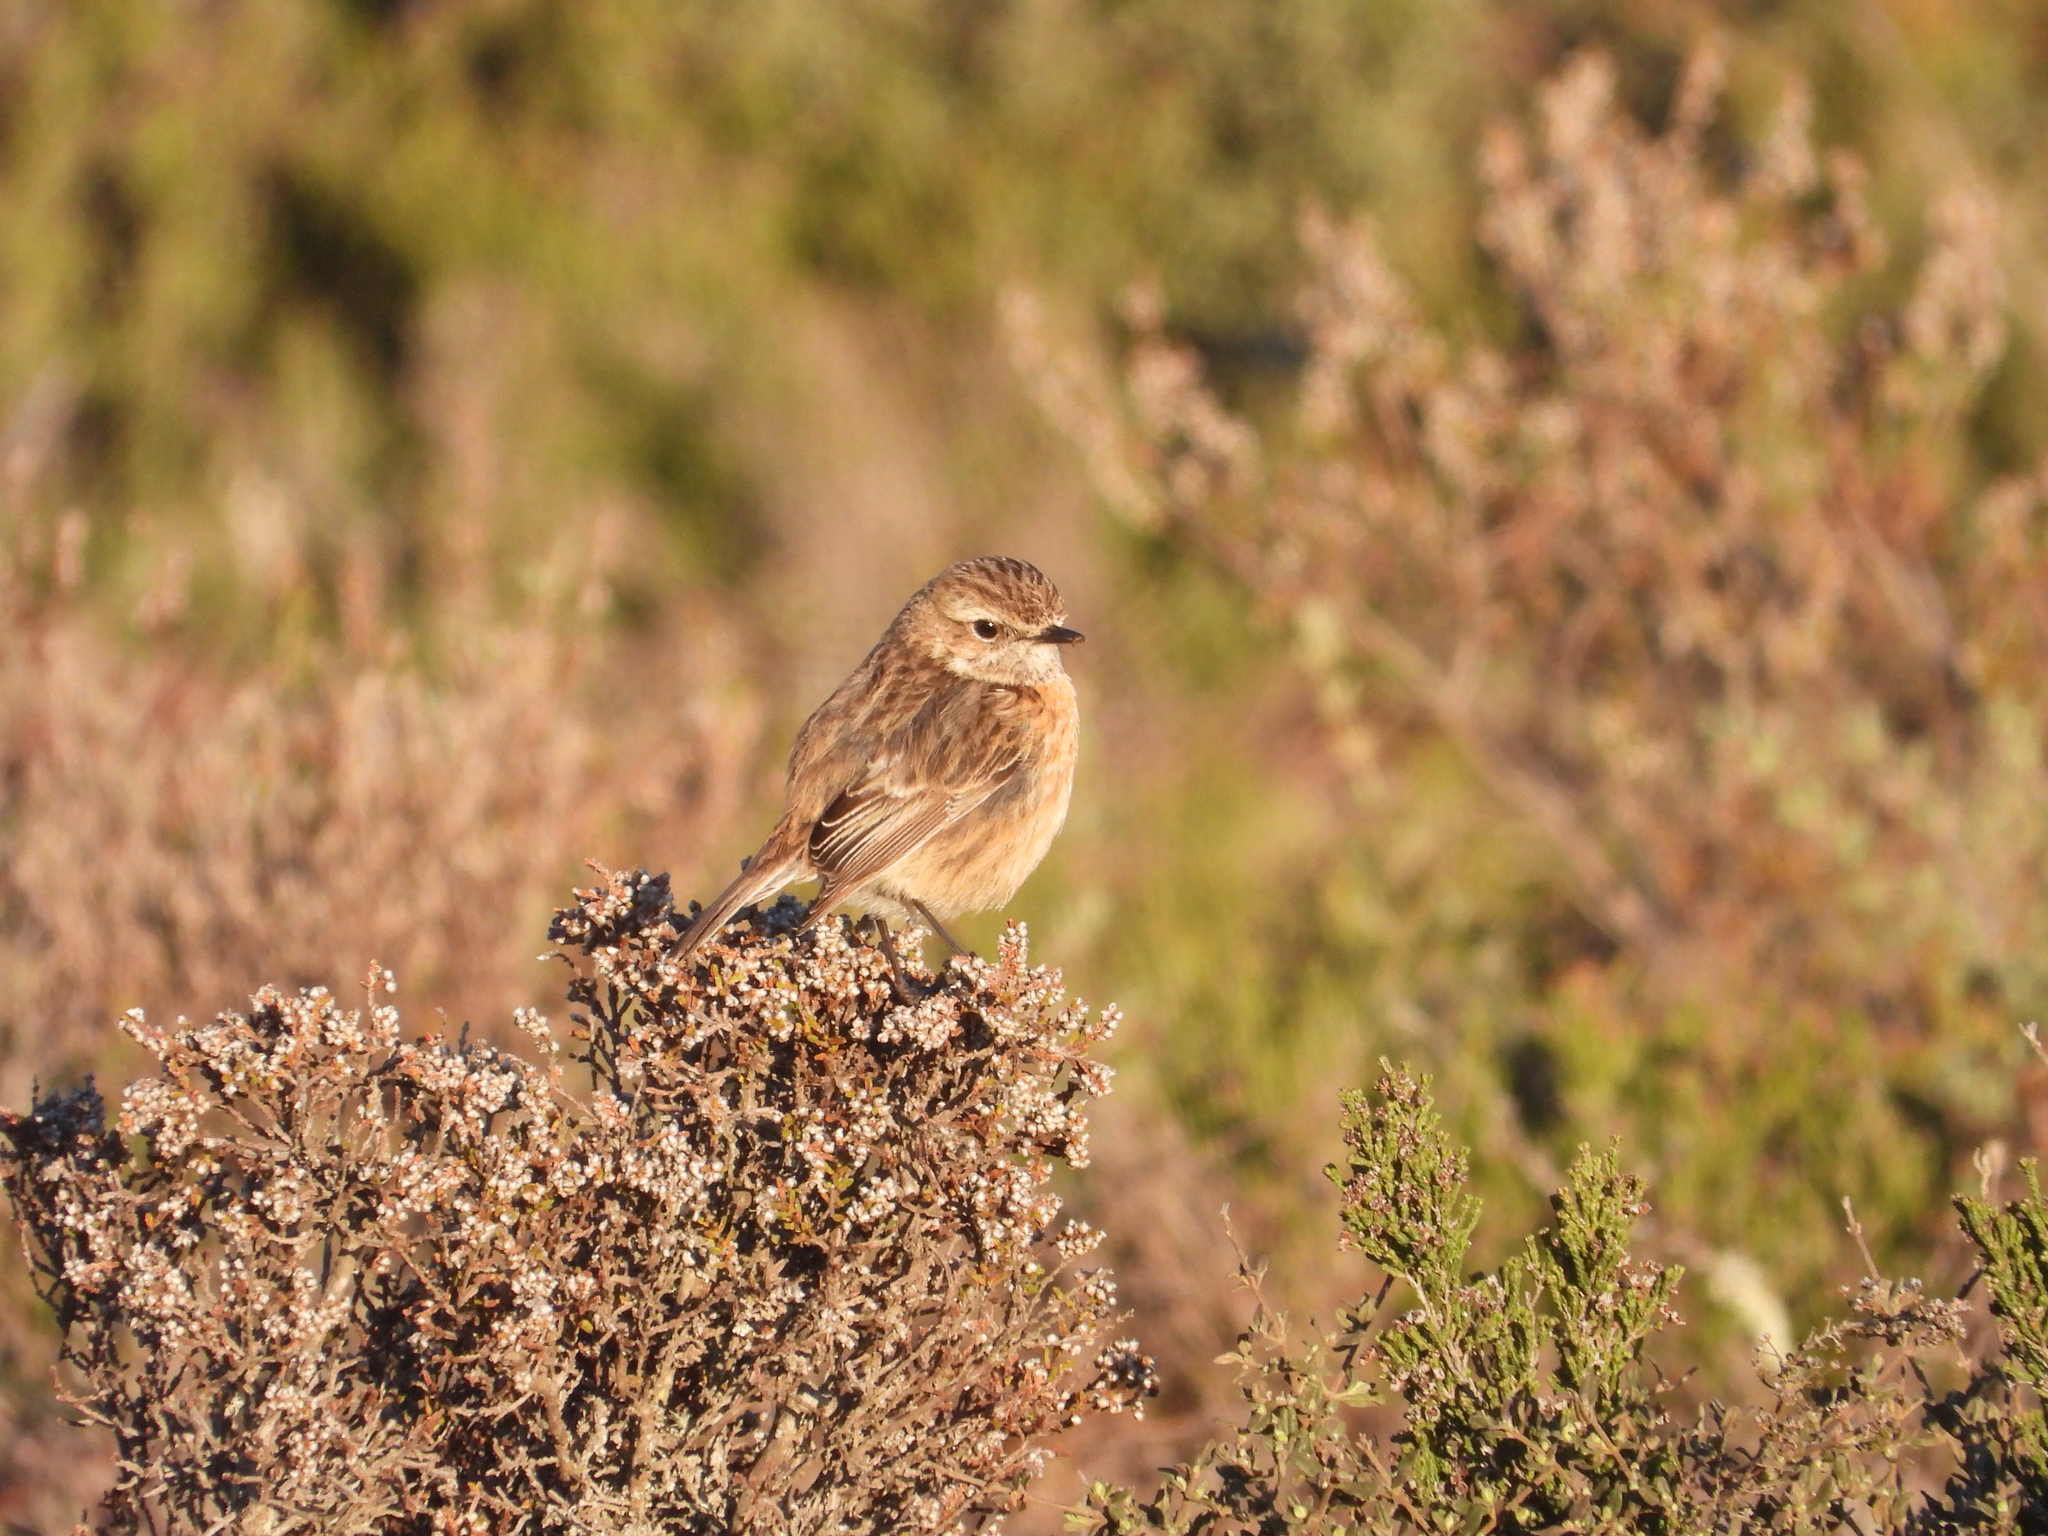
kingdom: Animalia
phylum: Chordata
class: Aves
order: Passeriformes
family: Muscicapidae
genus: Saxicola
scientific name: Saxicola rubicola
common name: European stonechat
